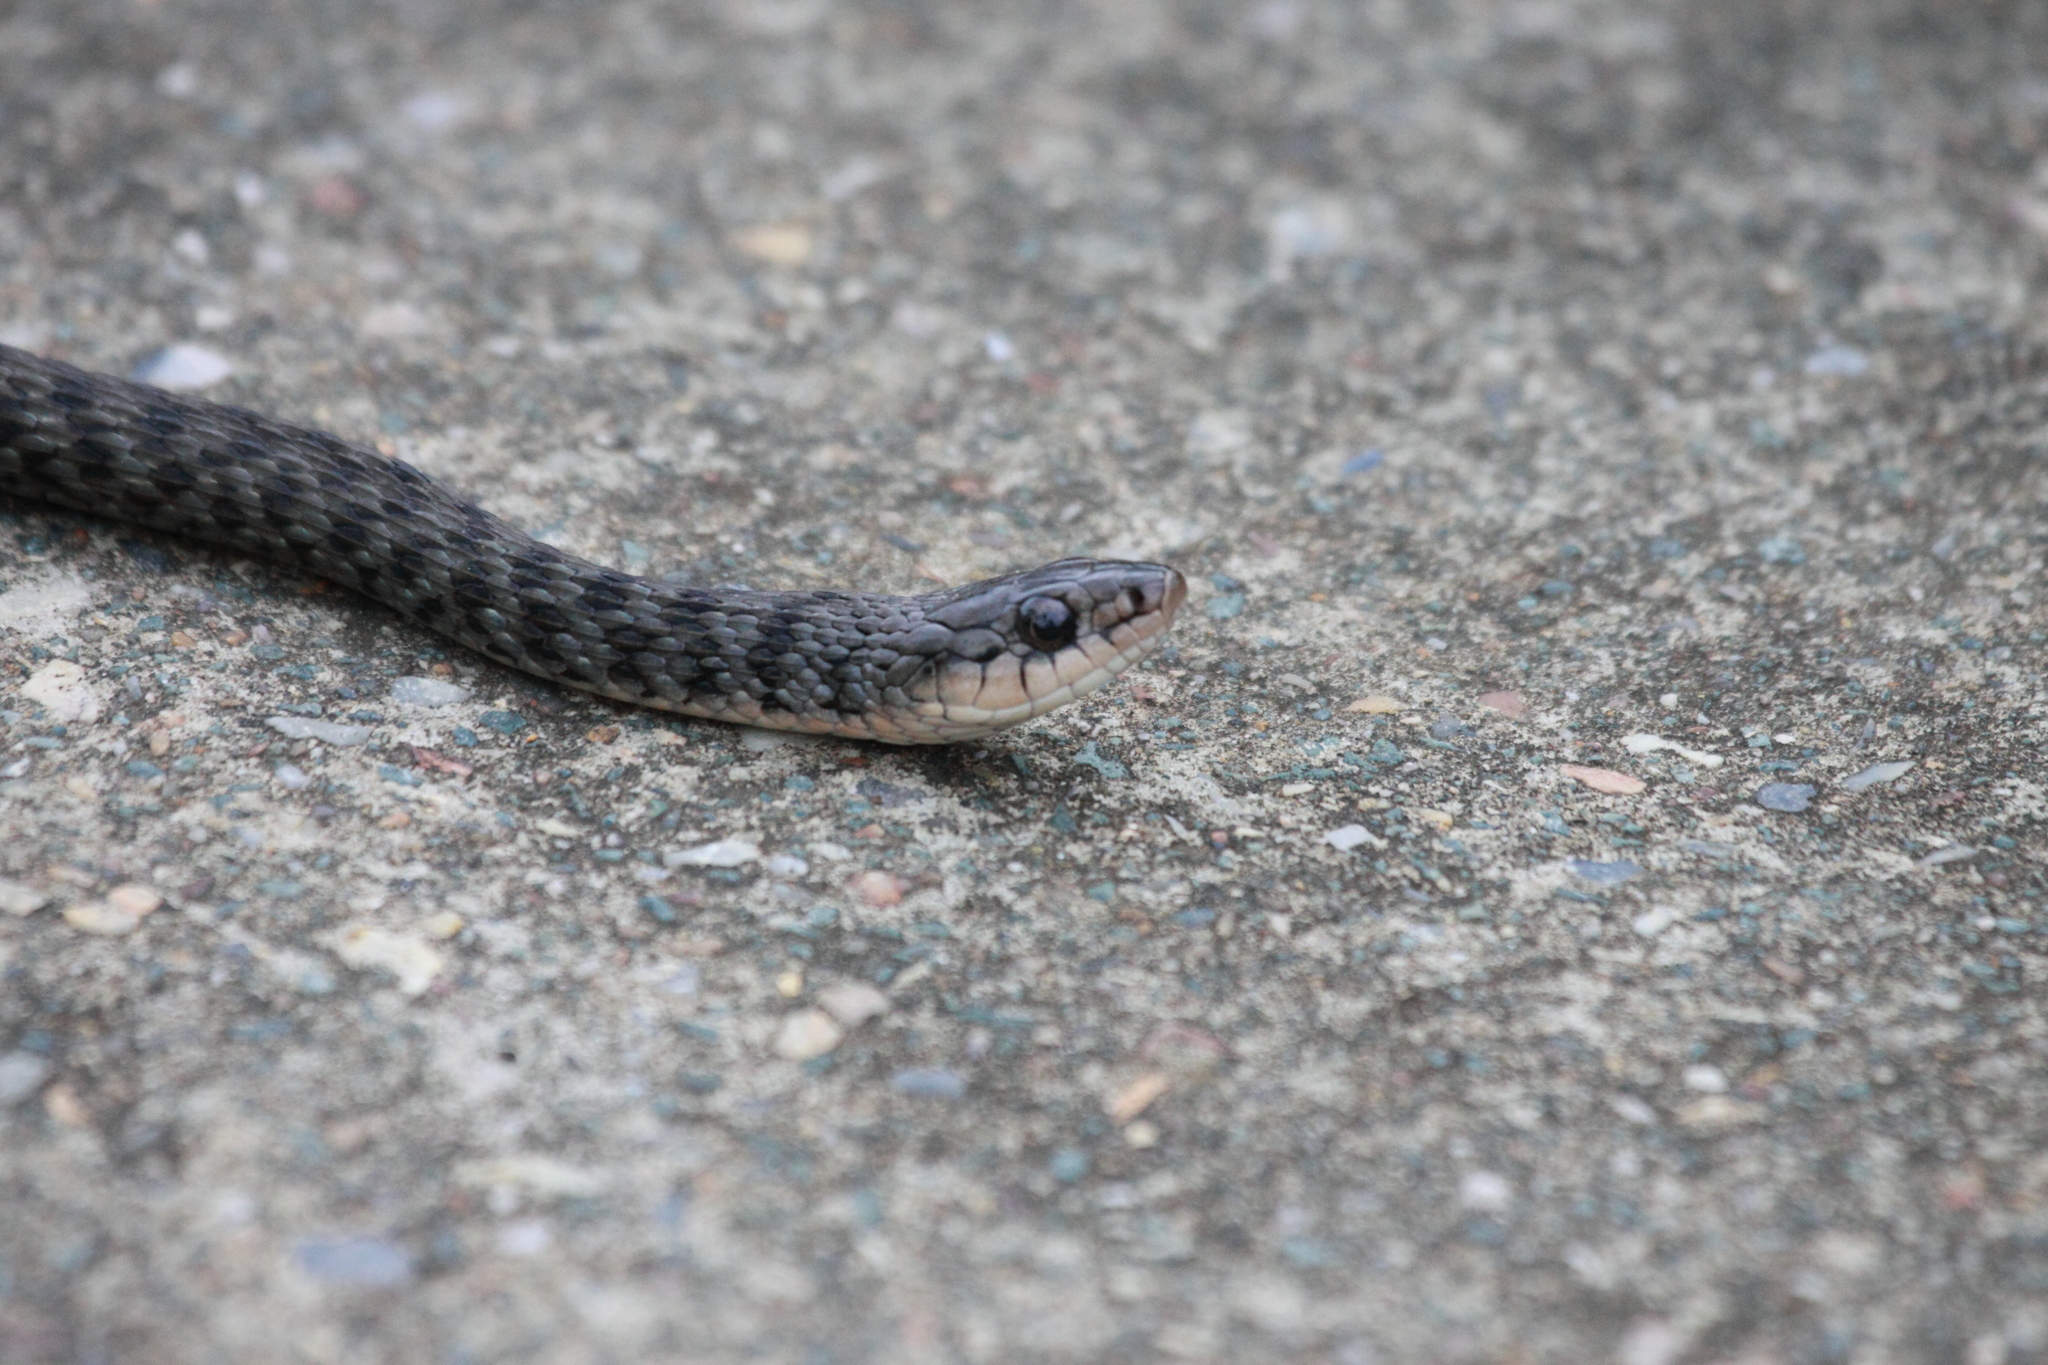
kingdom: Animalia
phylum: Chordata
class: Squamata
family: Colubridae
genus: Tropidonophis
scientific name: Tropidonophis mairii
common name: Common keelback
